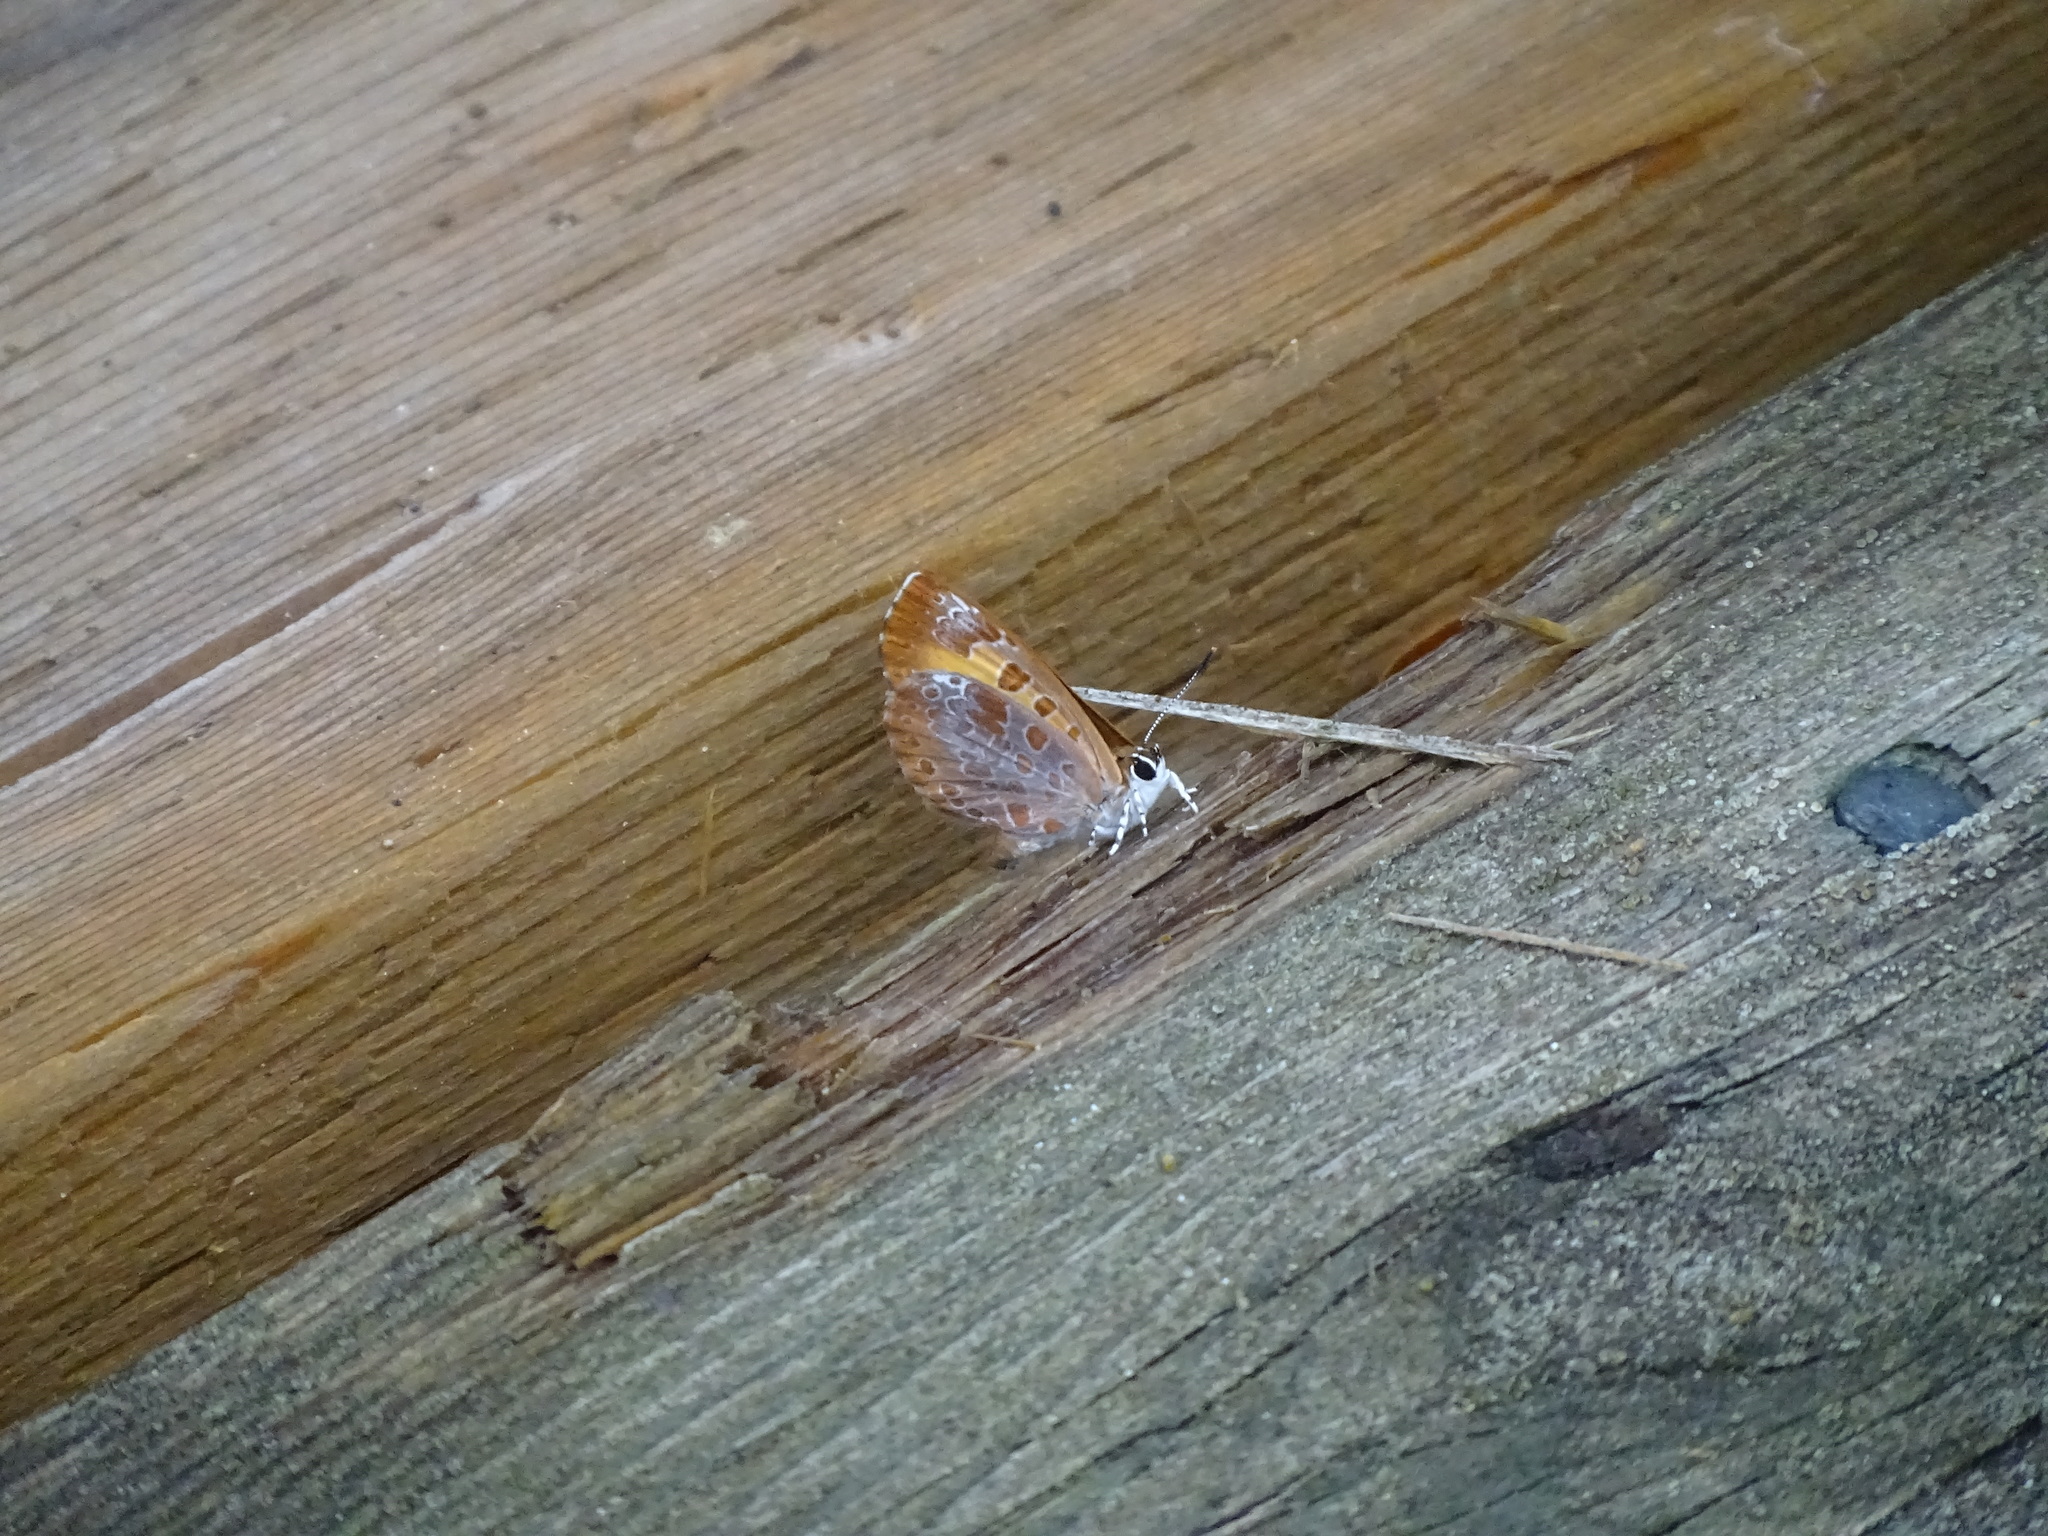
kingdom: Animalia
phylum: Arthropoda
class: Insecta
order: Lepidoptera
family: Lycaenidae
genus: Feniseca
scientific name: Feniseca tarquinius
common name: Harvester
